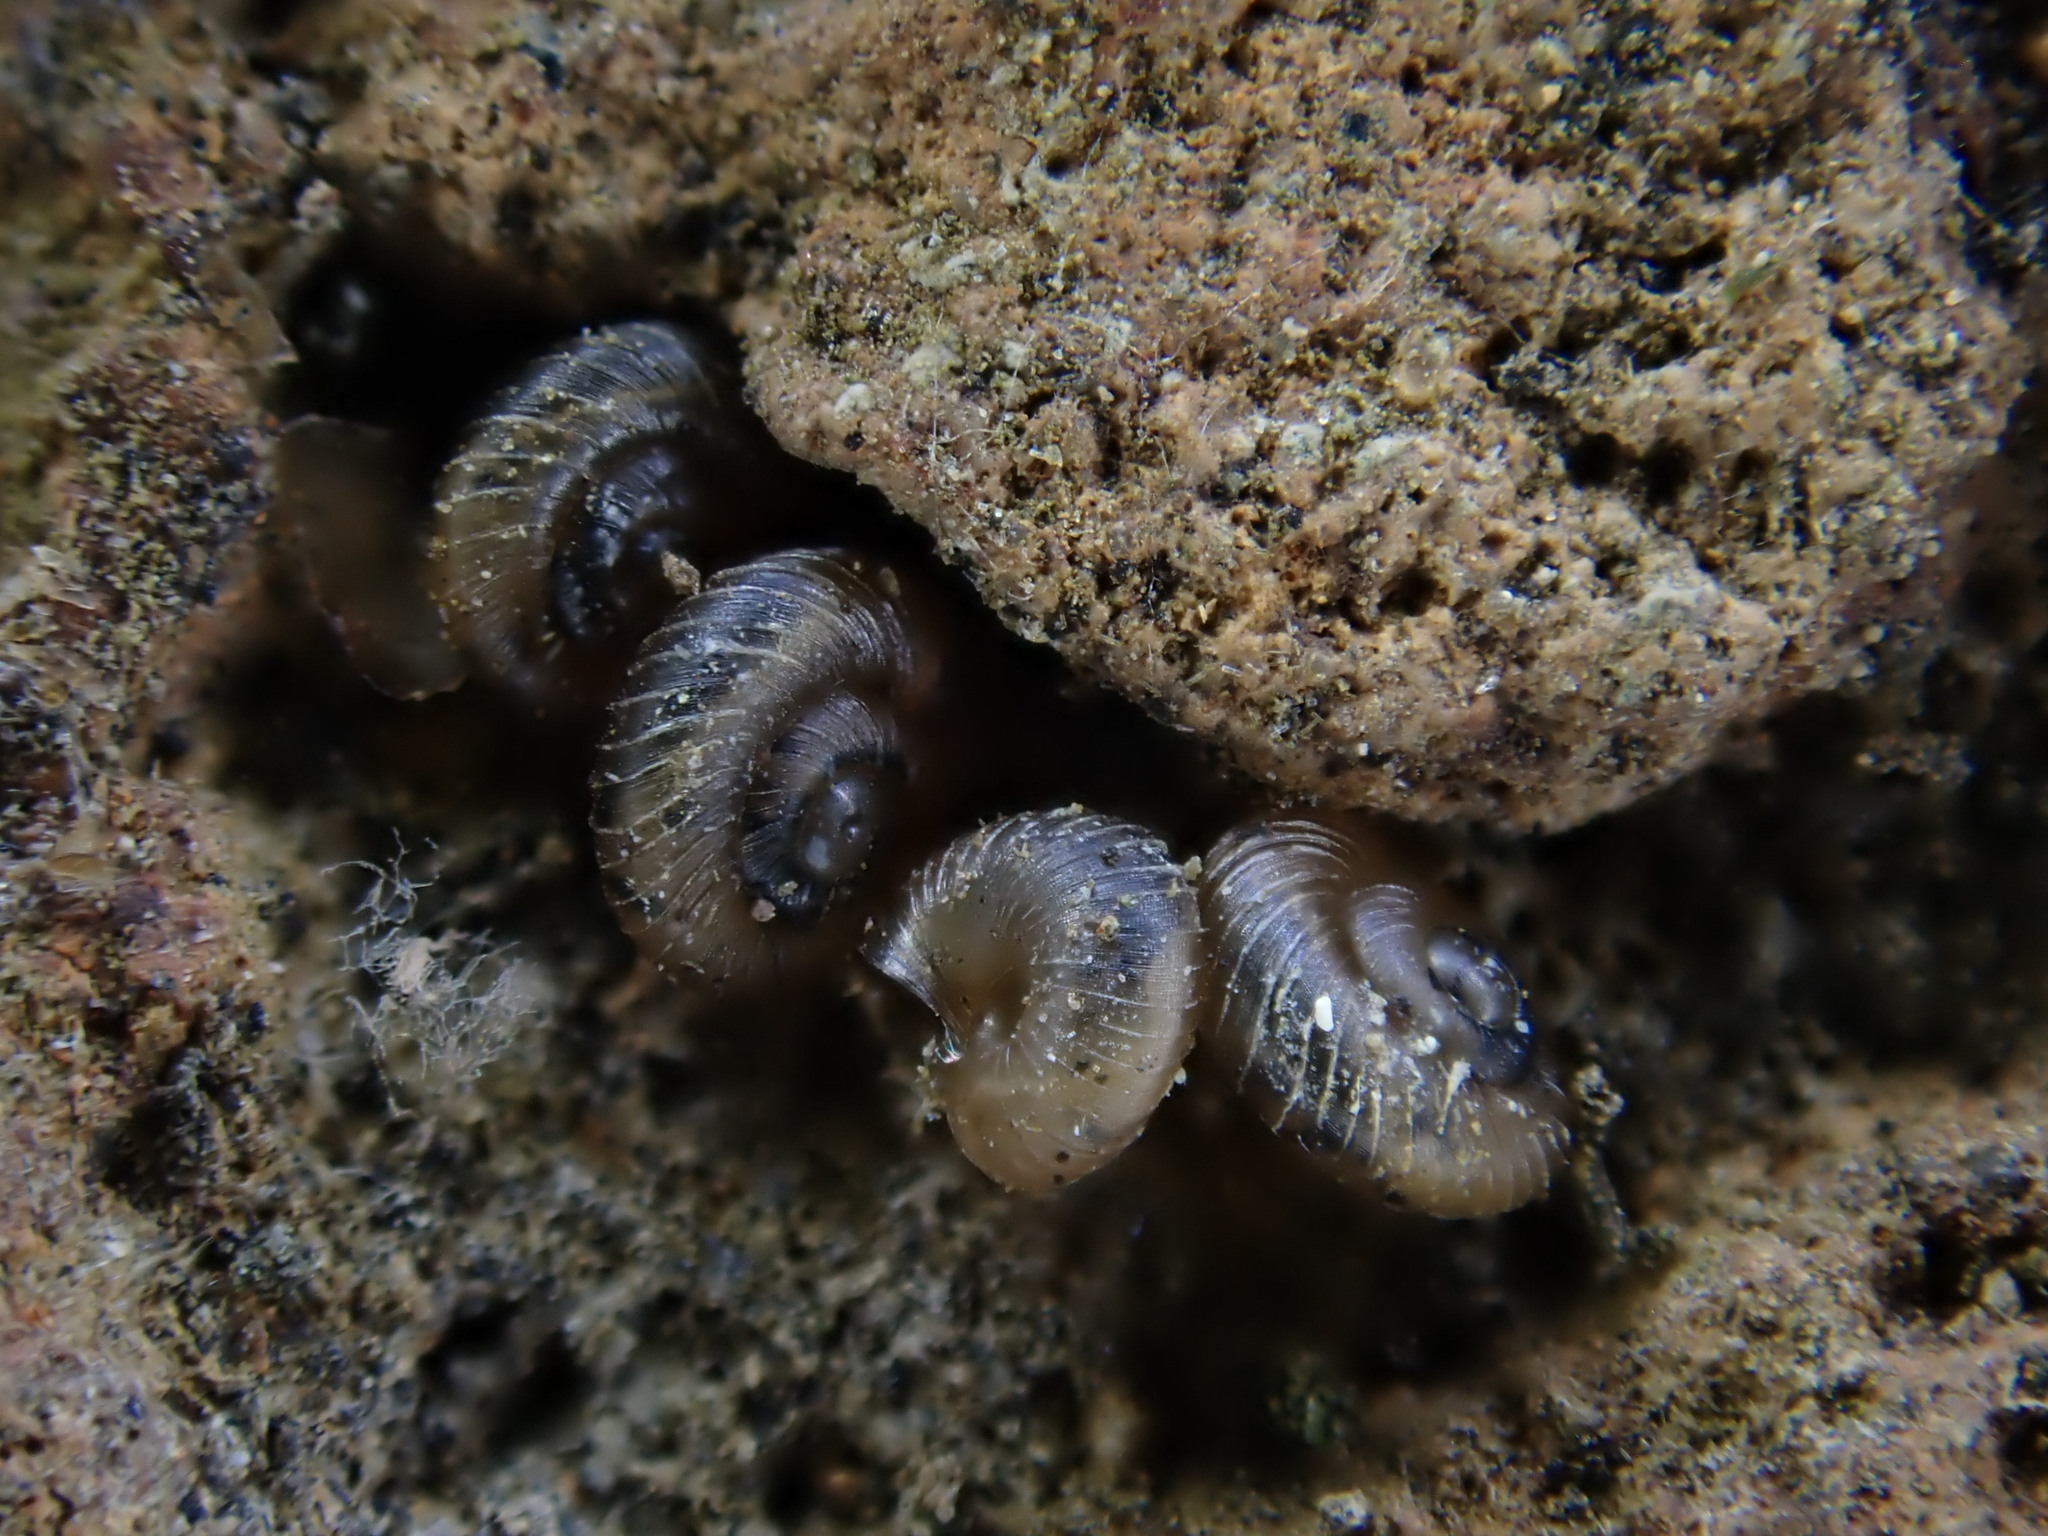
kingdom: Animalia
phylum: Mollusca
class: Gastropoda
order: Stylommatophora
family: Punctidae
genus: Paralaoma
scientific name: Paralaoma servilis
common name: Pinhead spot
